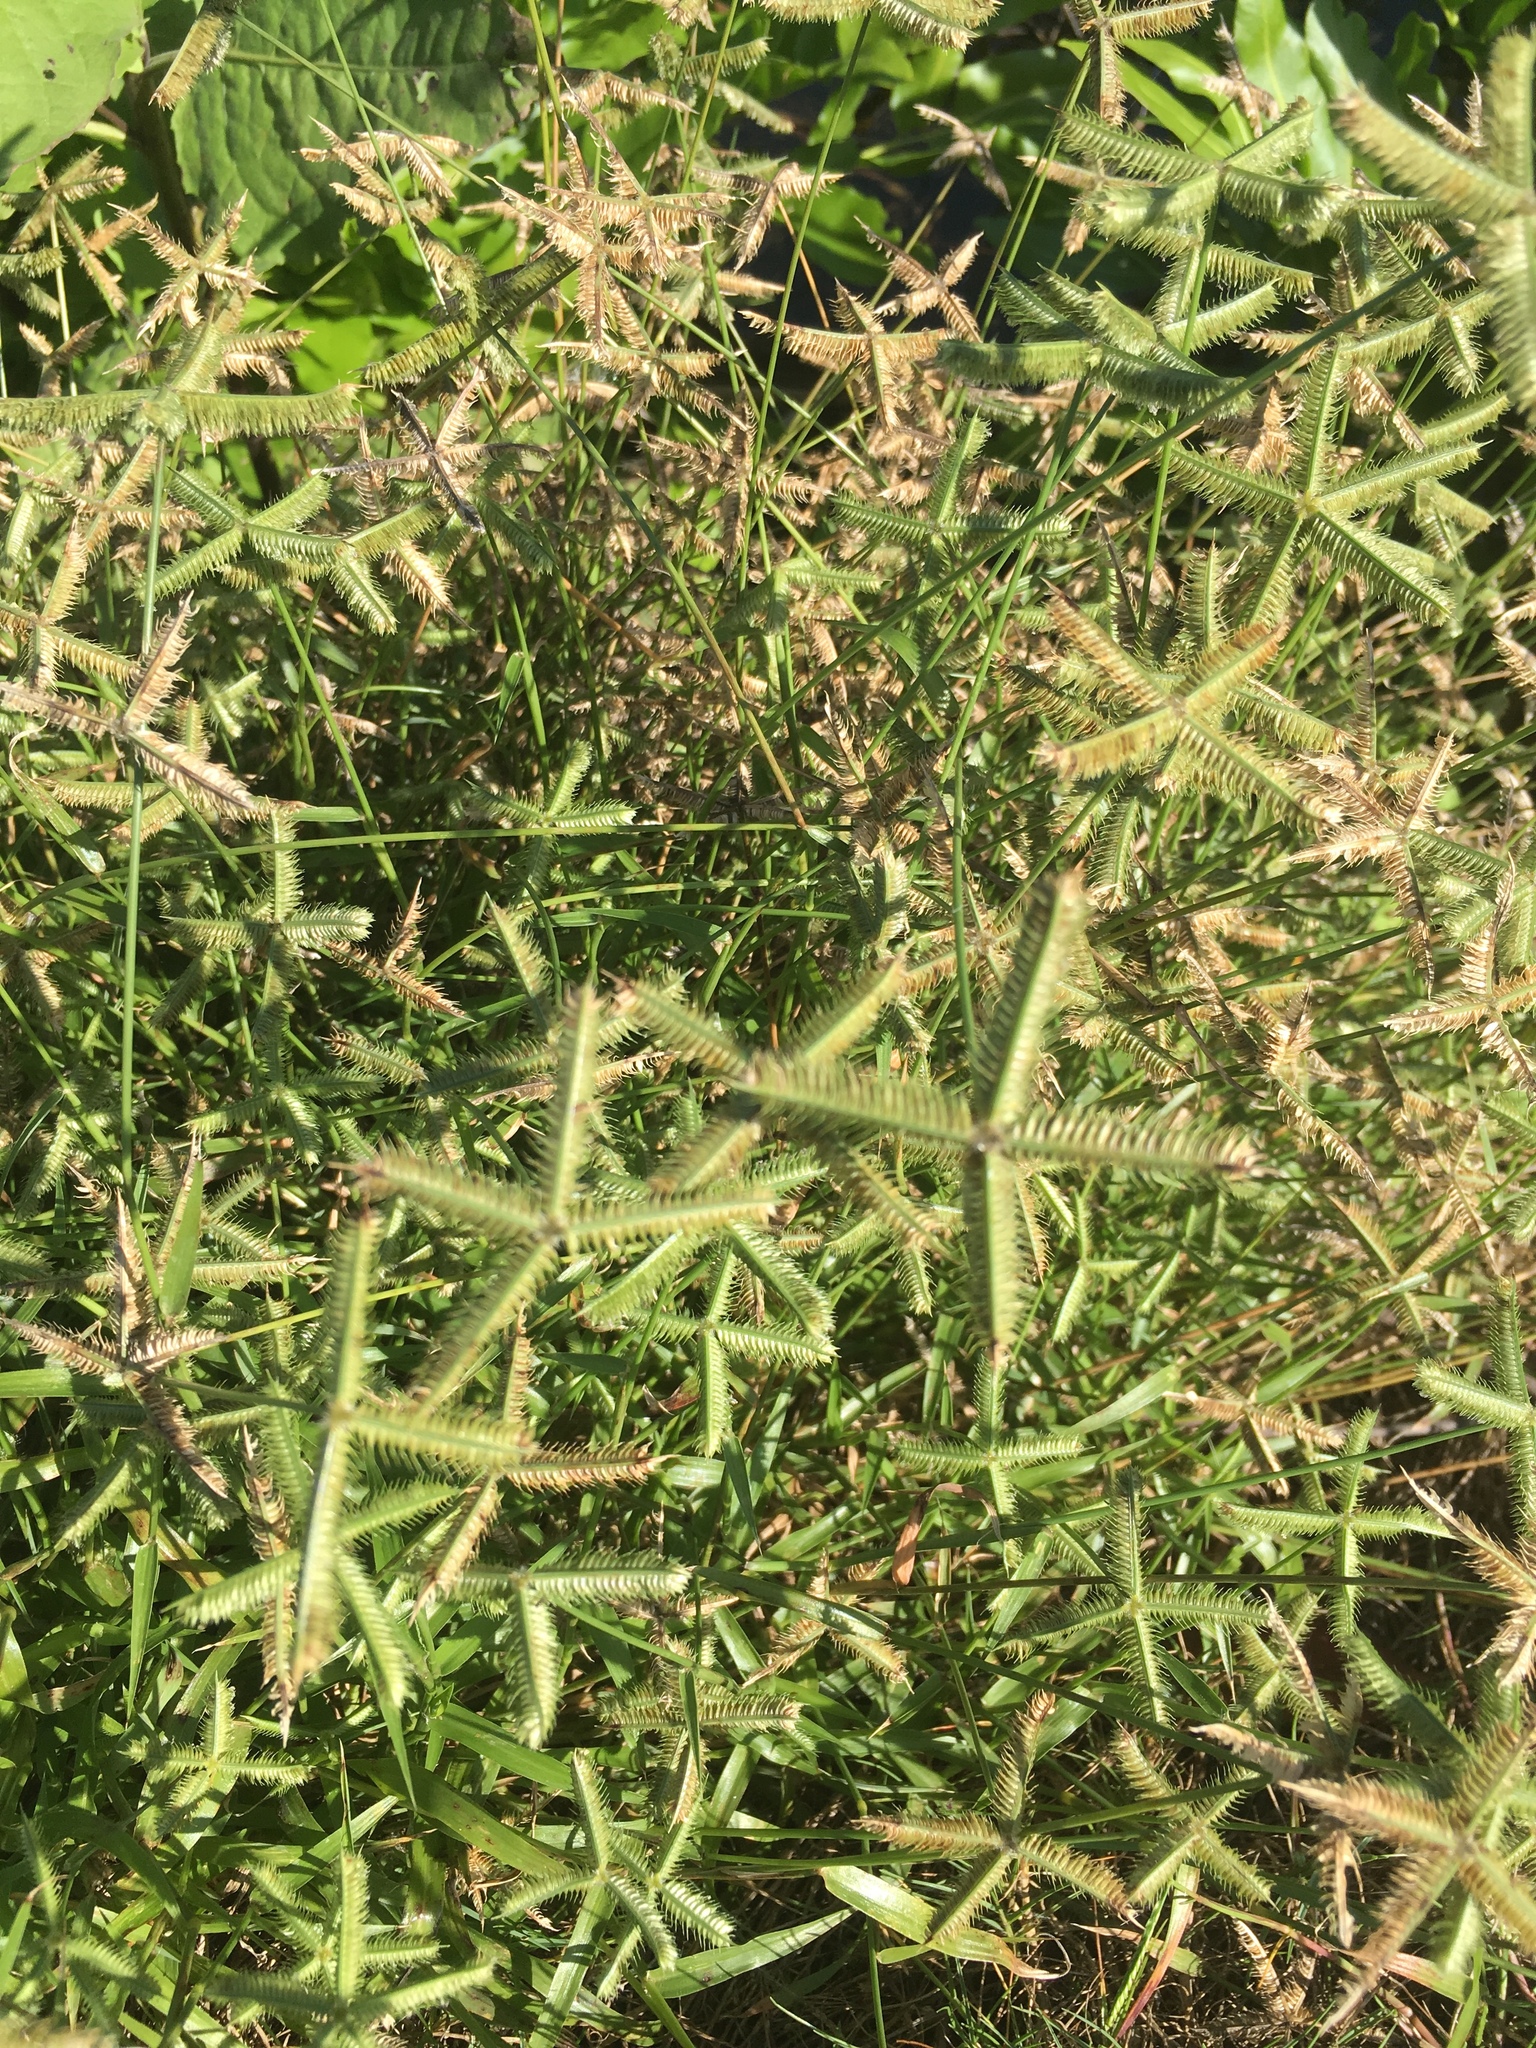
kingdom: Plantae
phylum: Tracheophyta
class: Liliopsida
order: Poales
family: Poaceae
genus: Dactyloctenium
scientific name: Dactyloctenium aegyptium
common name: Egyptian grass
